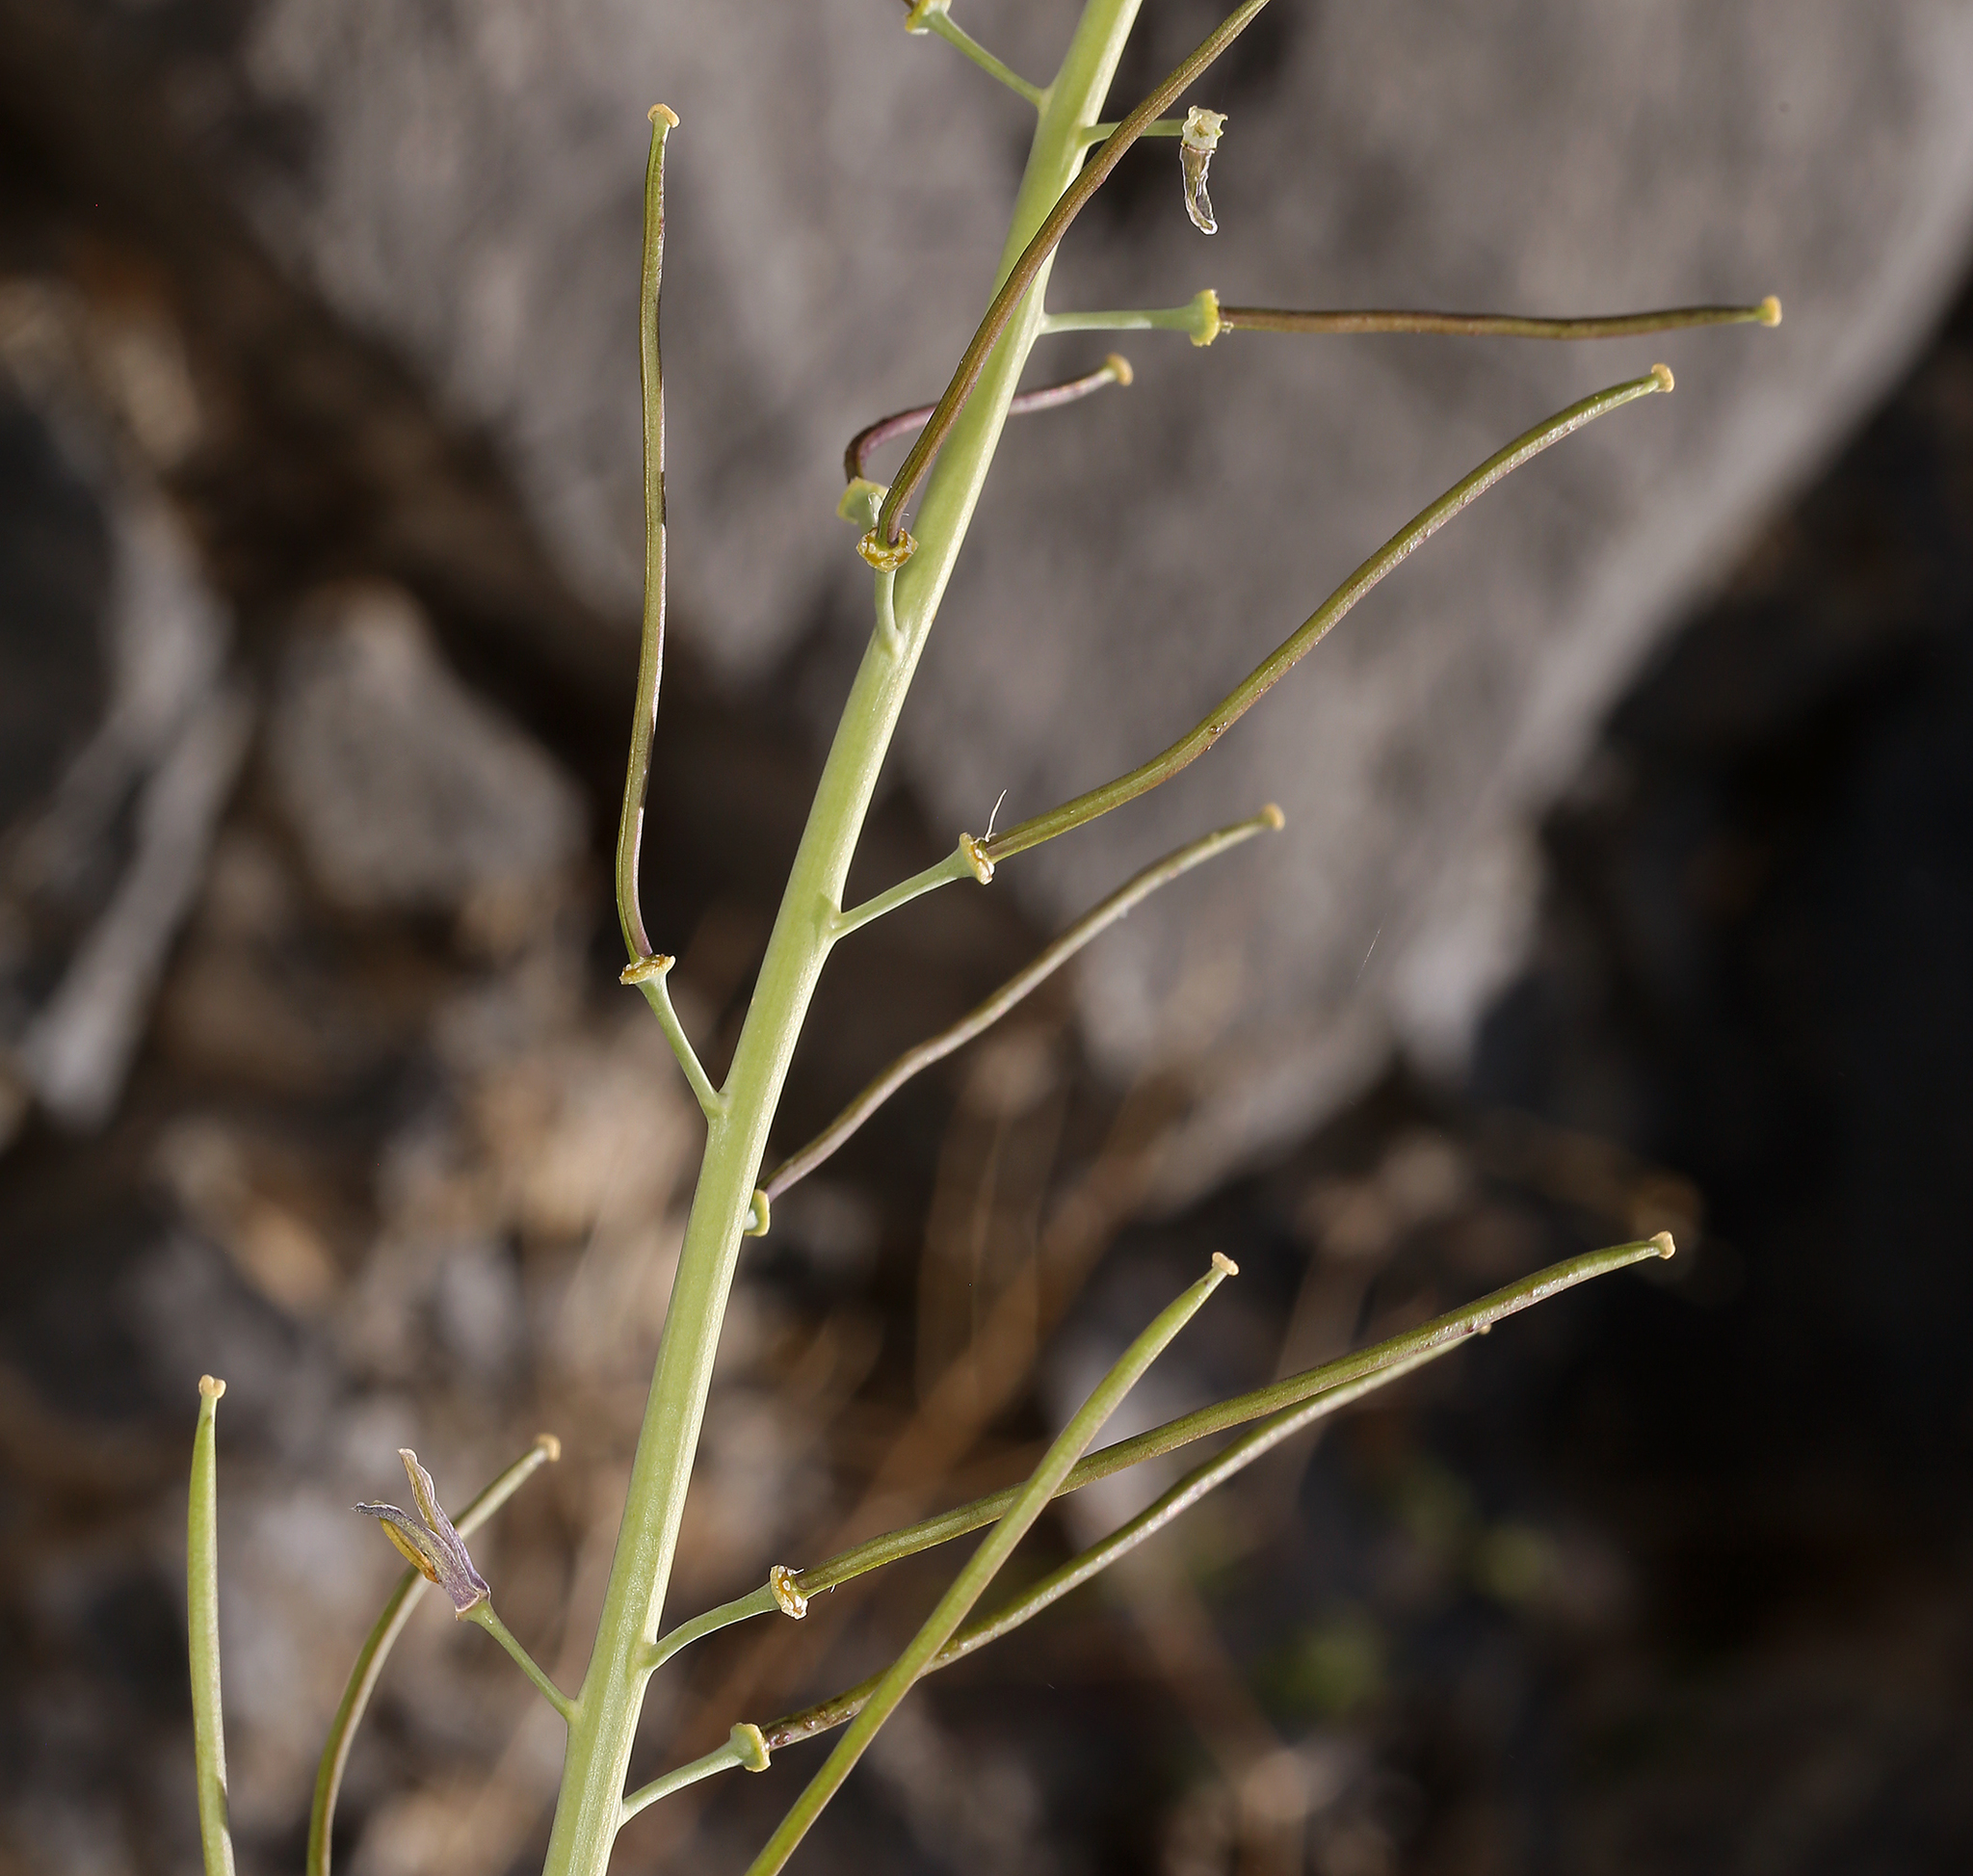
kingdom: Plantae
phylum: Tracheophyta
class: Magnoliopsida
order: Brassicales
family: Brassicaceae
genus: Streptanthus
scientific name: Streptanthus glaucus
